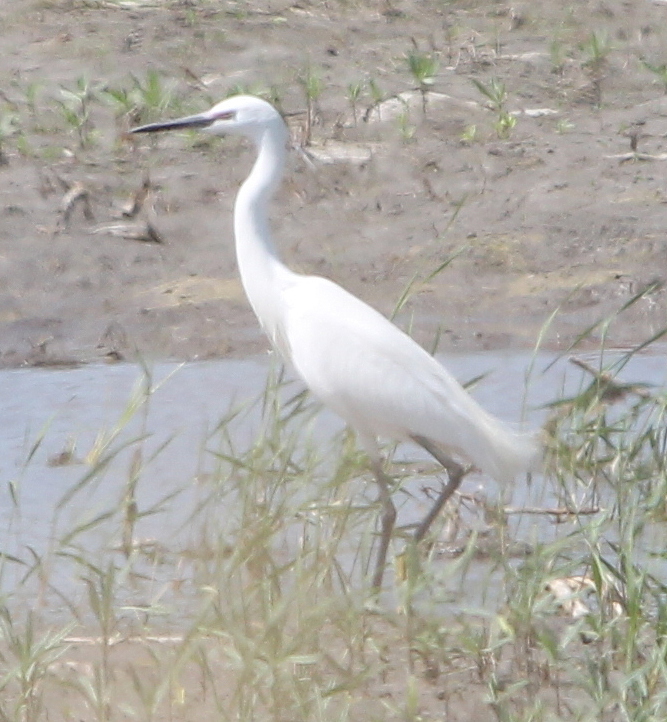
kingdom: Animalia
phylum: Chordata
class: Aves
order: Pelecaniformes
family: Ardeidae
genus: Egretta
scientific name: Egretta garzetta
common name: Little egret
